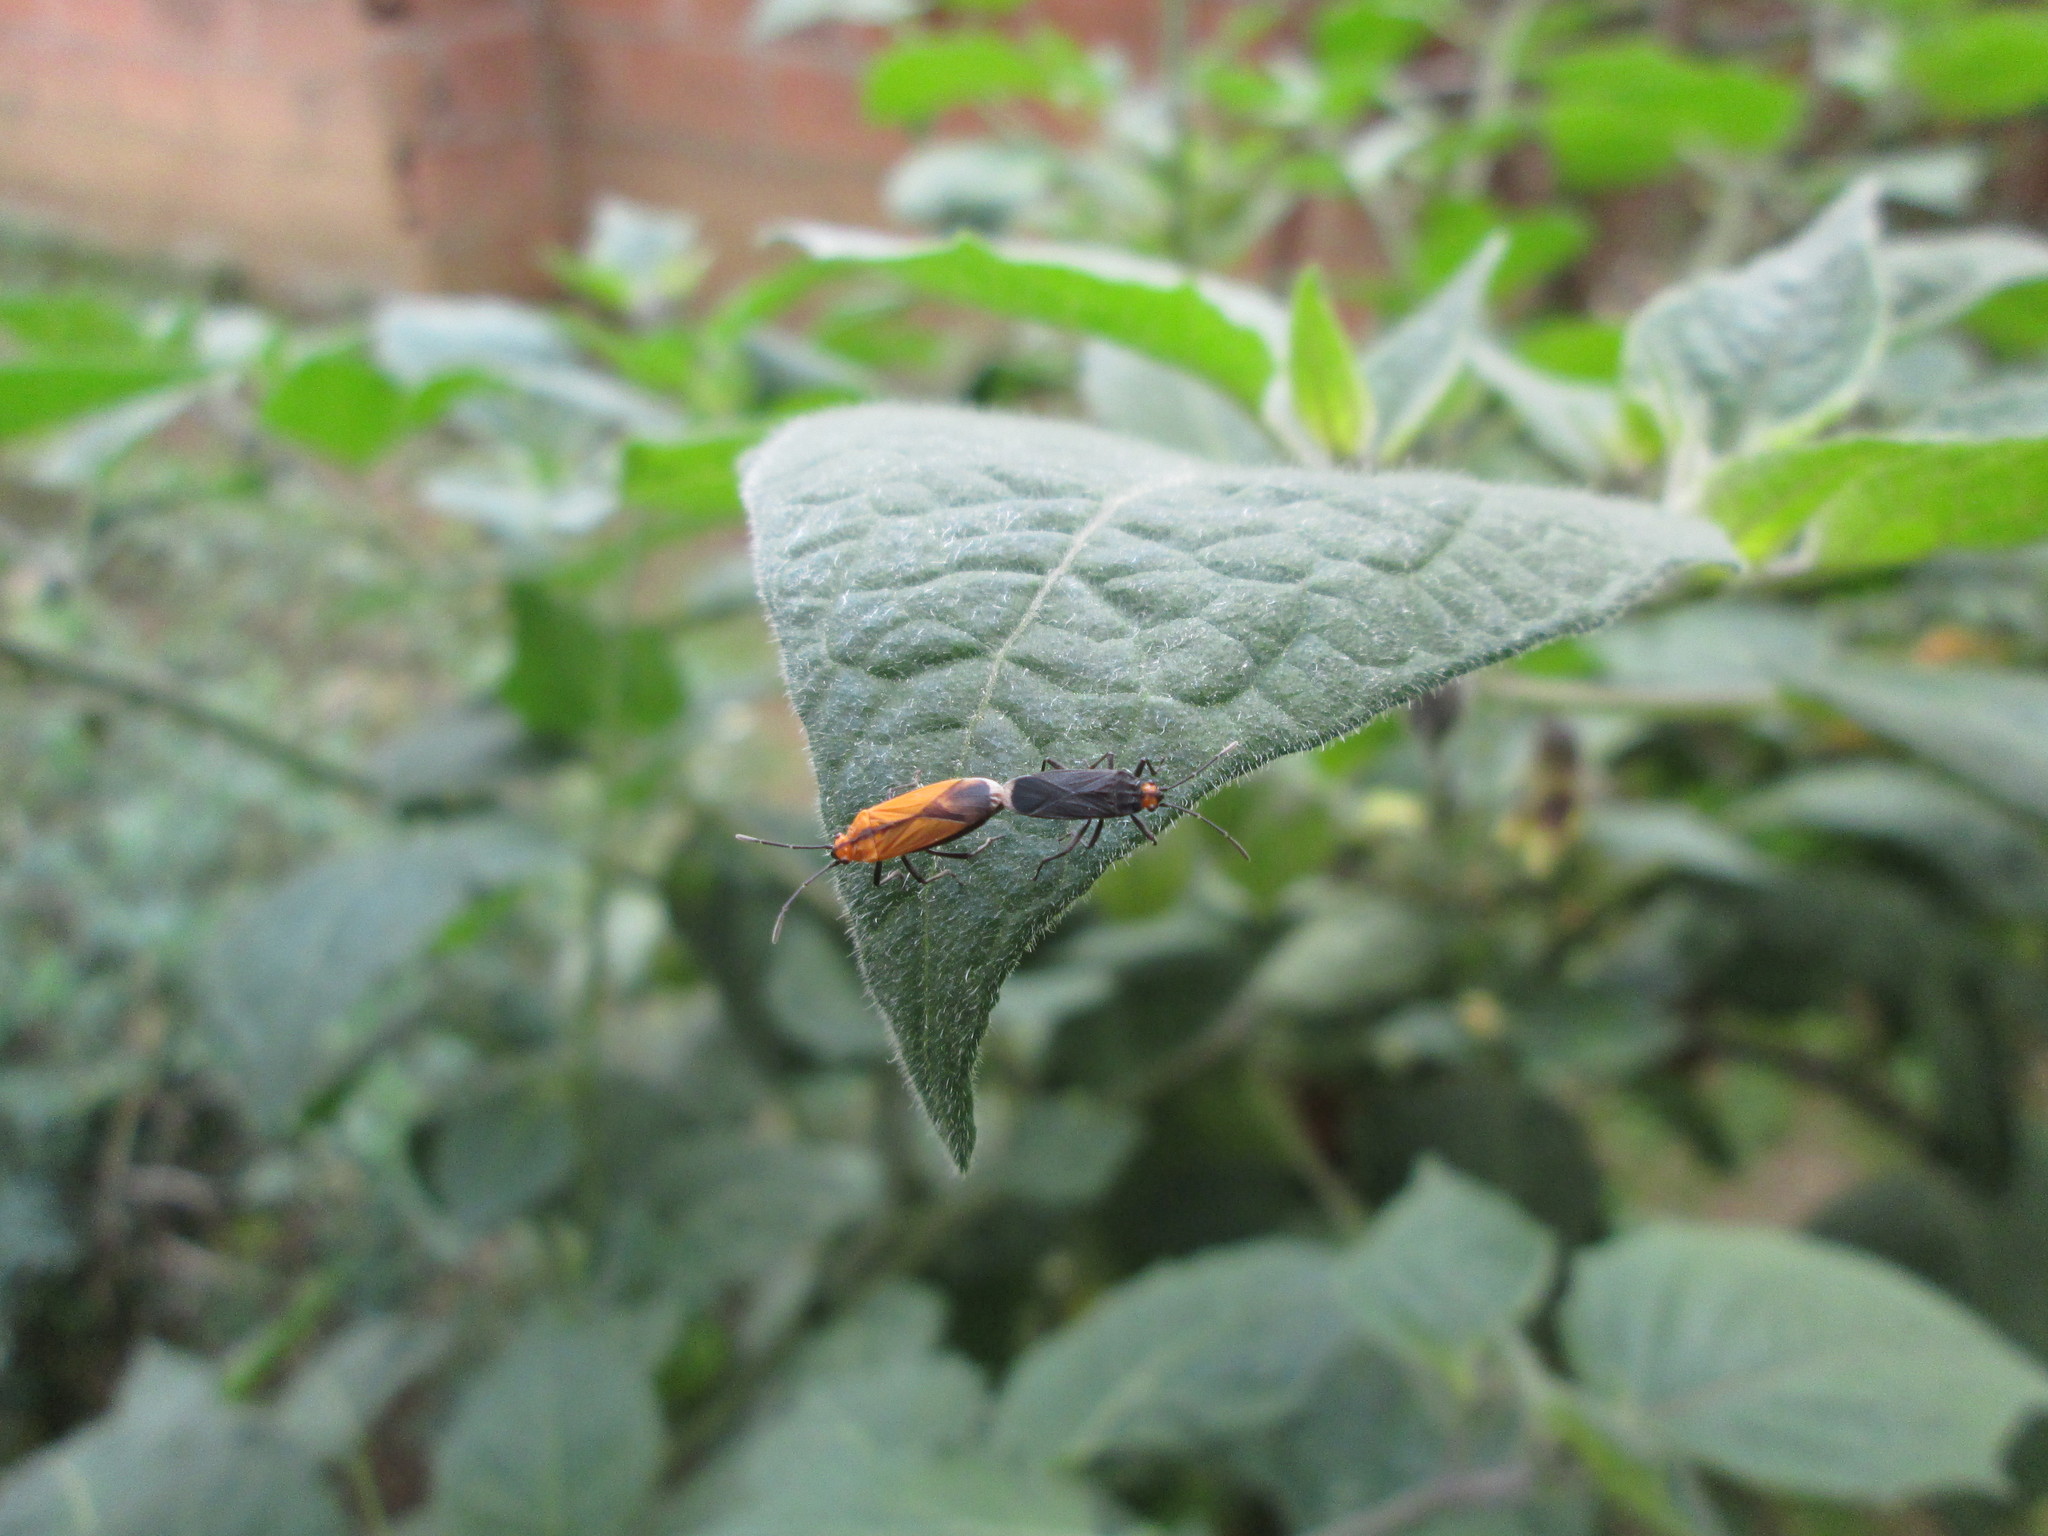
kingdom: Animalia
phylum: Arthropoda
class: Insecta
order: Hemiptera
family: Lygaeidae
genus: Acroleucus
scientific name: Acroleucus marinoi
